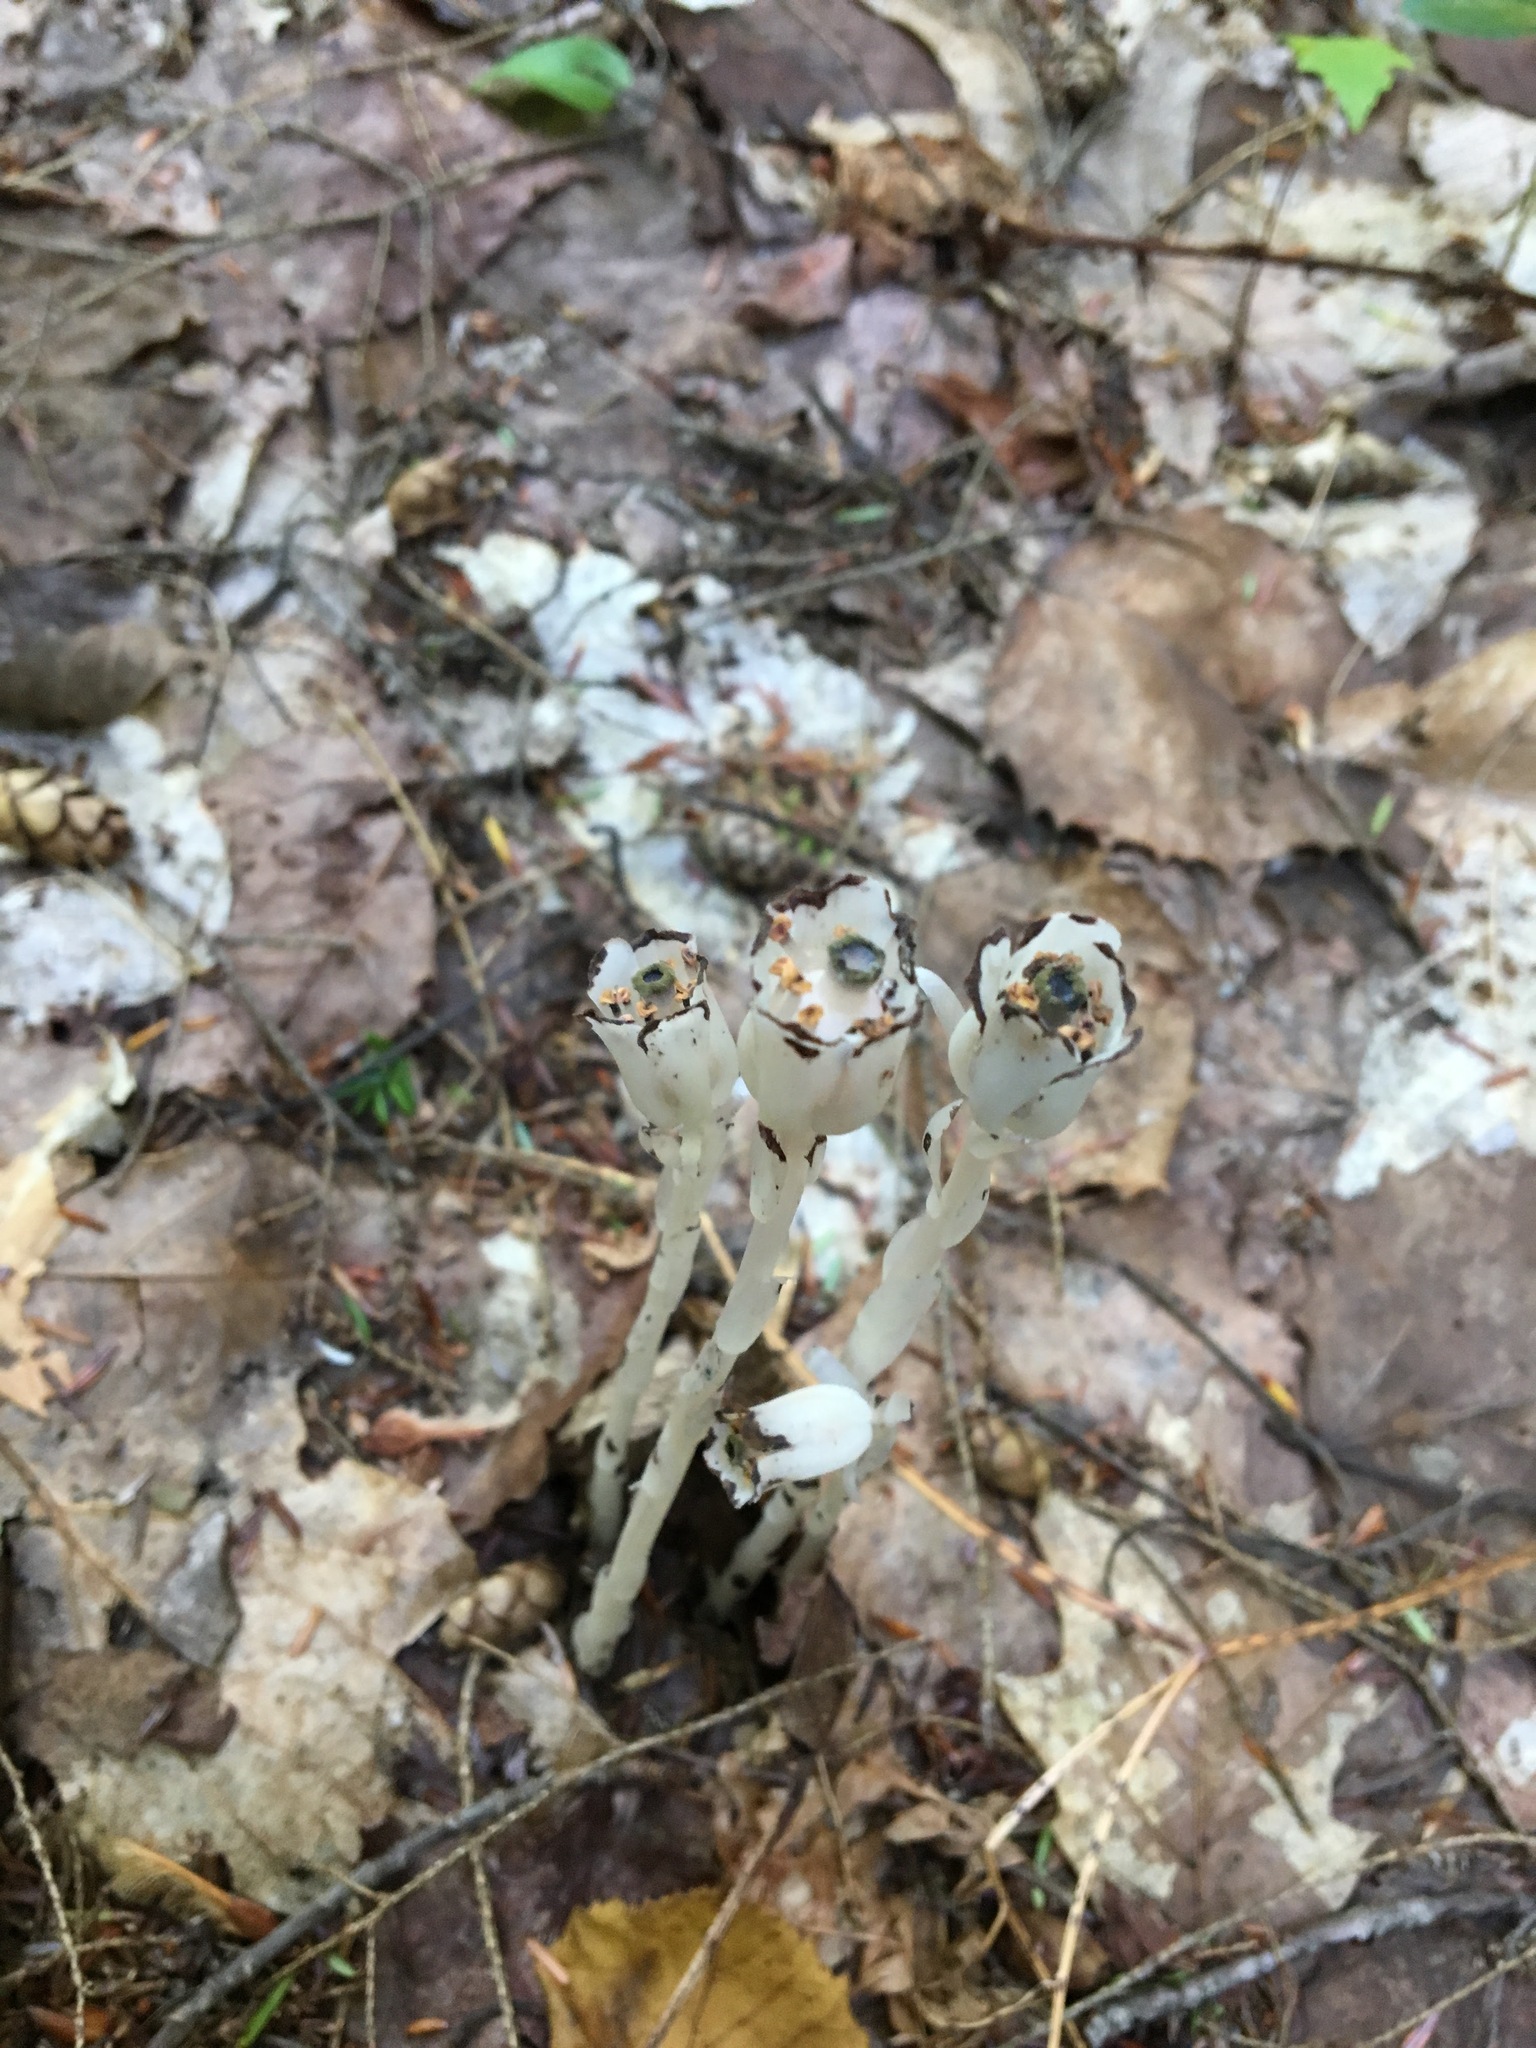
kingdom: Plantae
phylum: Tracheophyta
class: Magnoliopsida
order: Ericales
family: Ericaceae
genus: Monotropa
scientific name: Monotropa uniflora
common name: Convulsion root
